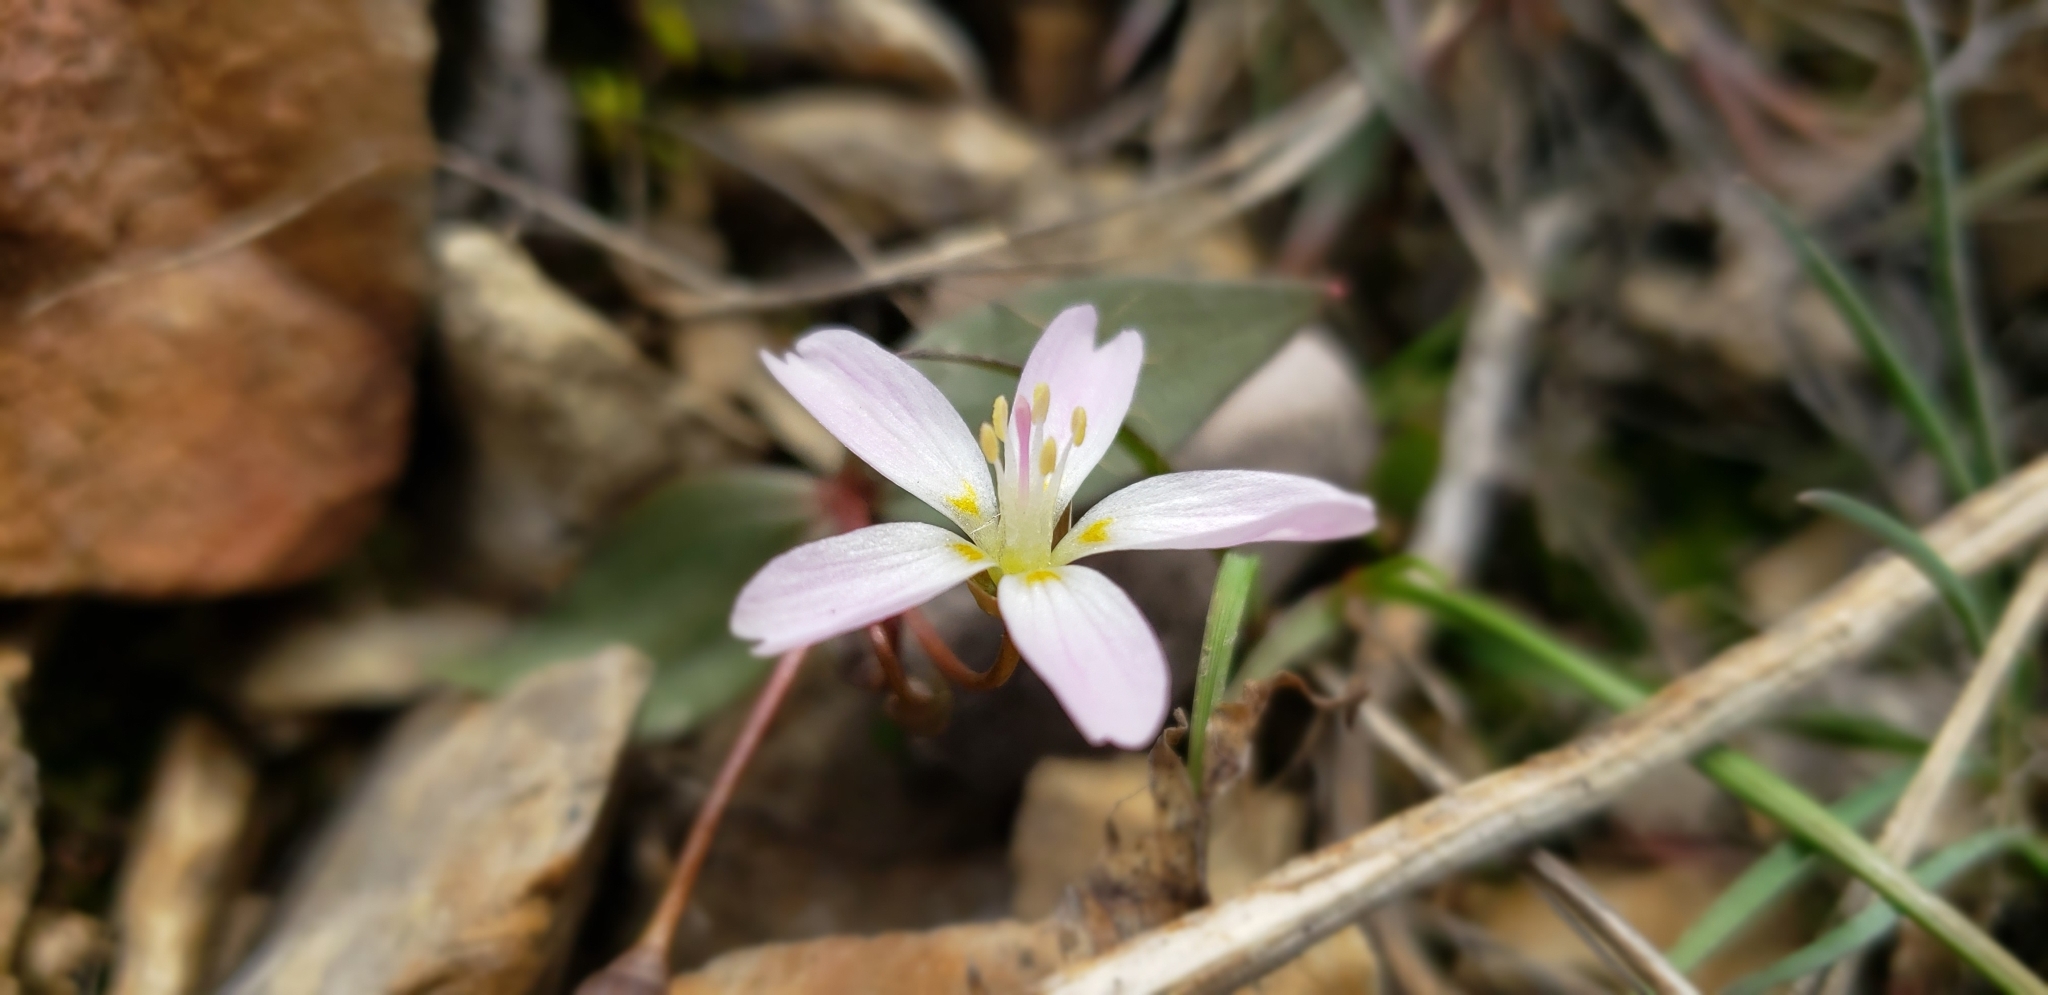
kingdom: Plantae
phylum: Tracheophyta
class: Magnoliopsida
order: Caryophyllales
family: Montiaceae
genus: Claytonia
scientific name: Claytonia lanceolata
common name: Western spring-beauty
